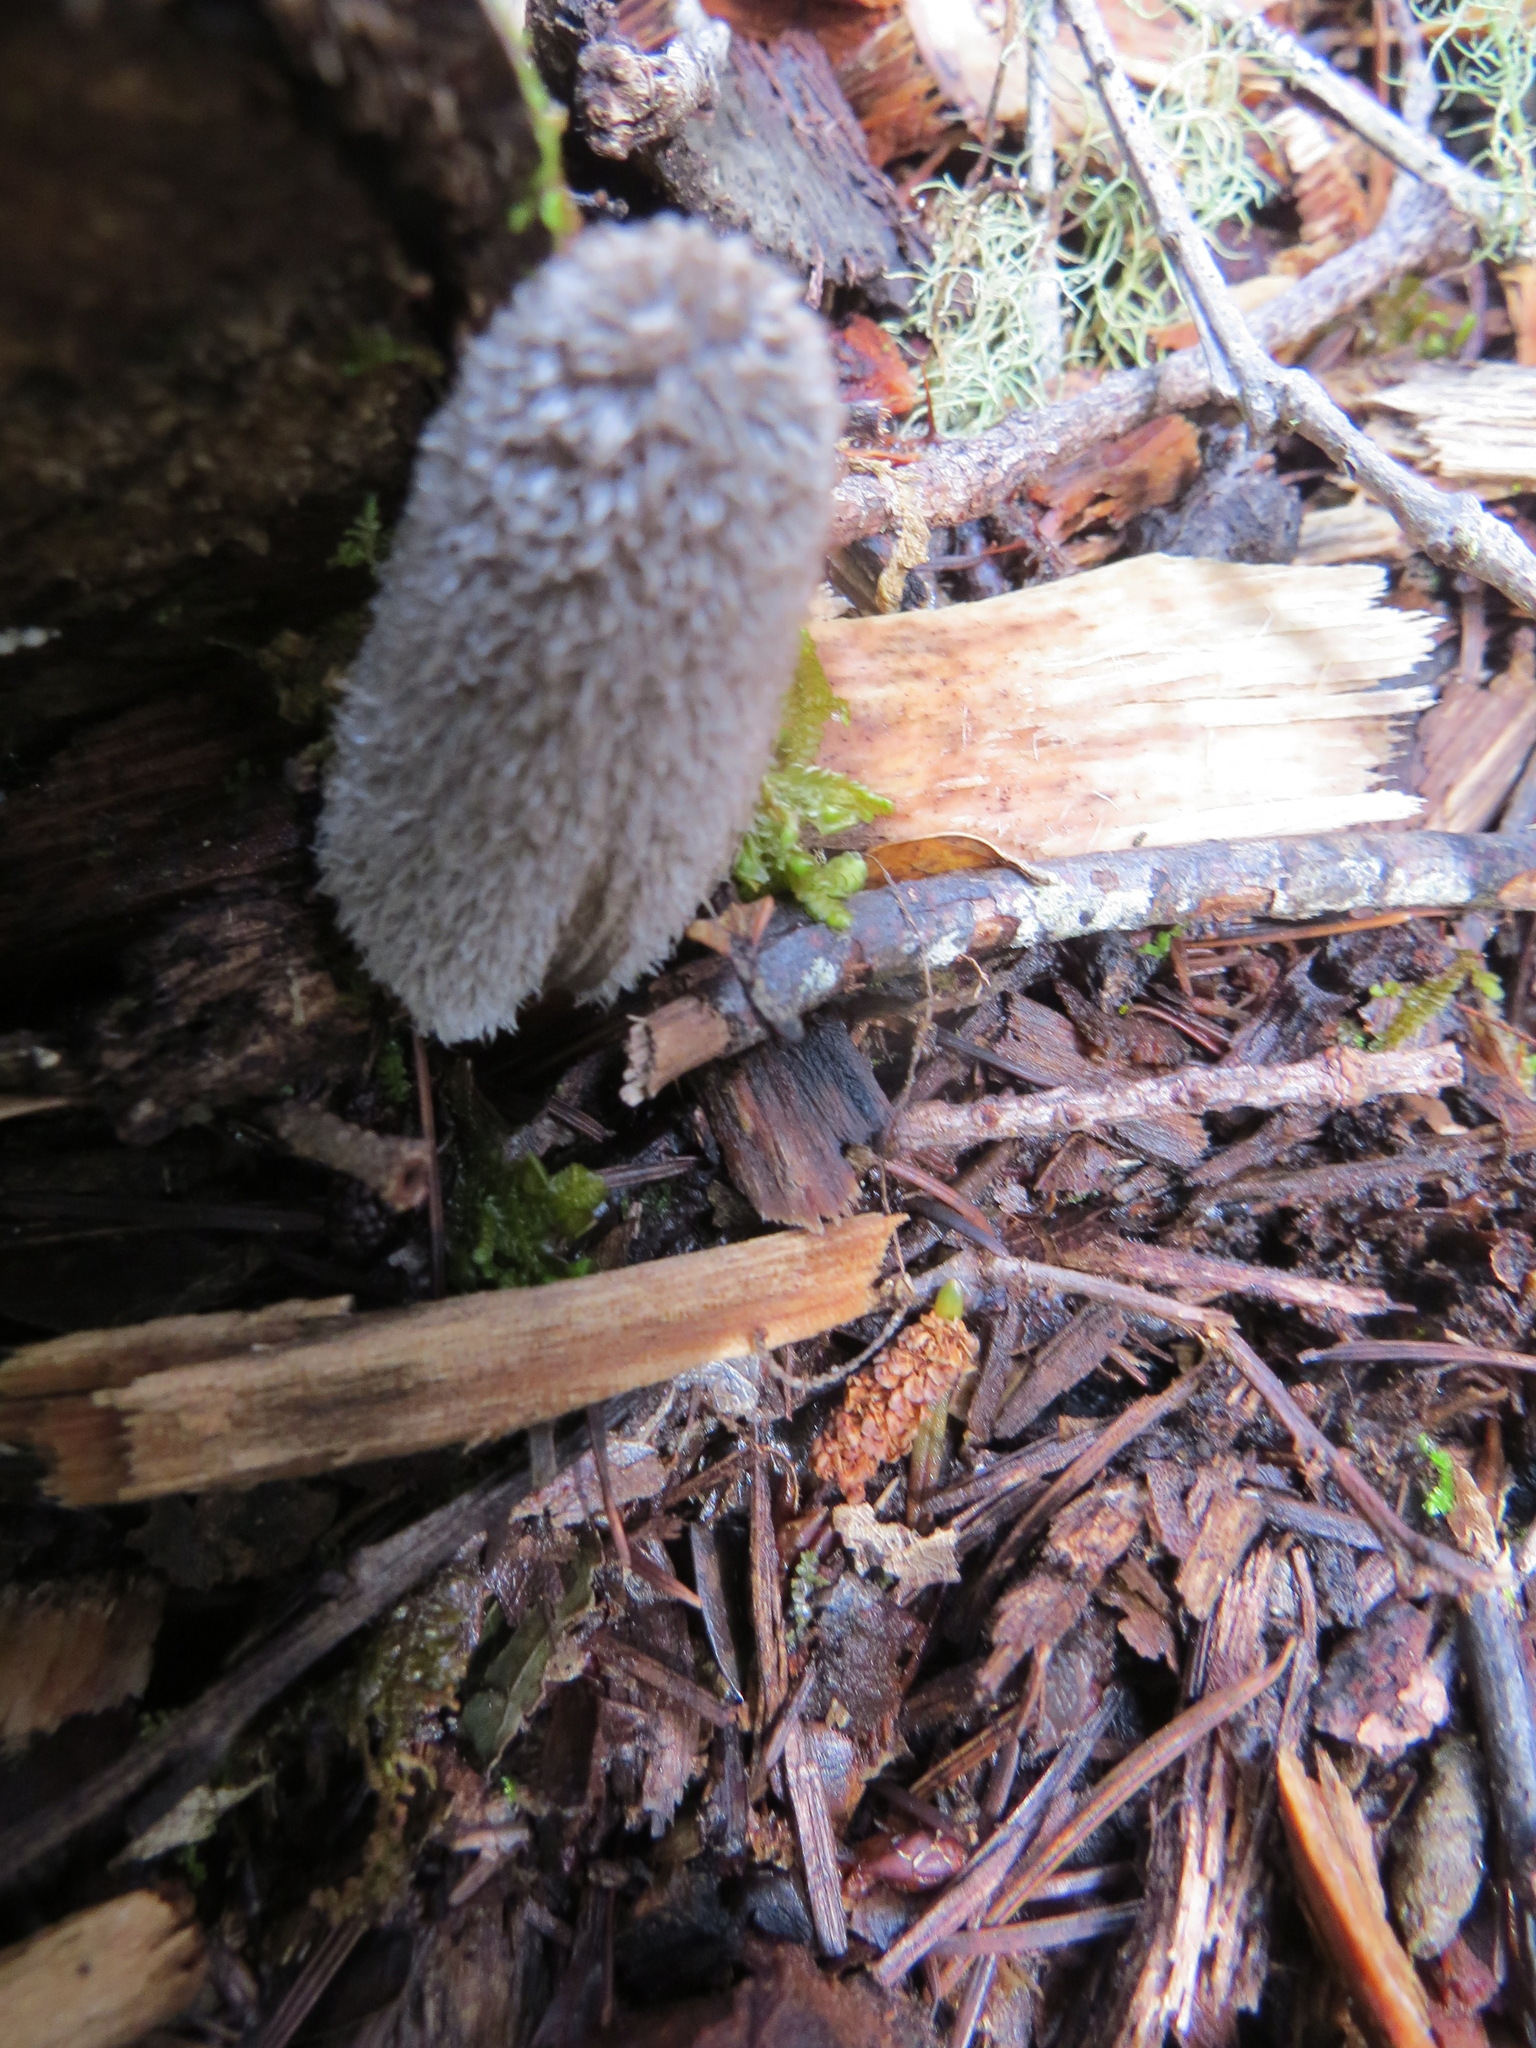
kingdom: Fungi
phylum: Basidiomycota
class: Agaricomycetes
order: Agaricales
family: Psathyrellaceae
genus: Coprinopsis
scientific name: Coprinopsis lagopus
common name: Hare'sfoot inkcap
